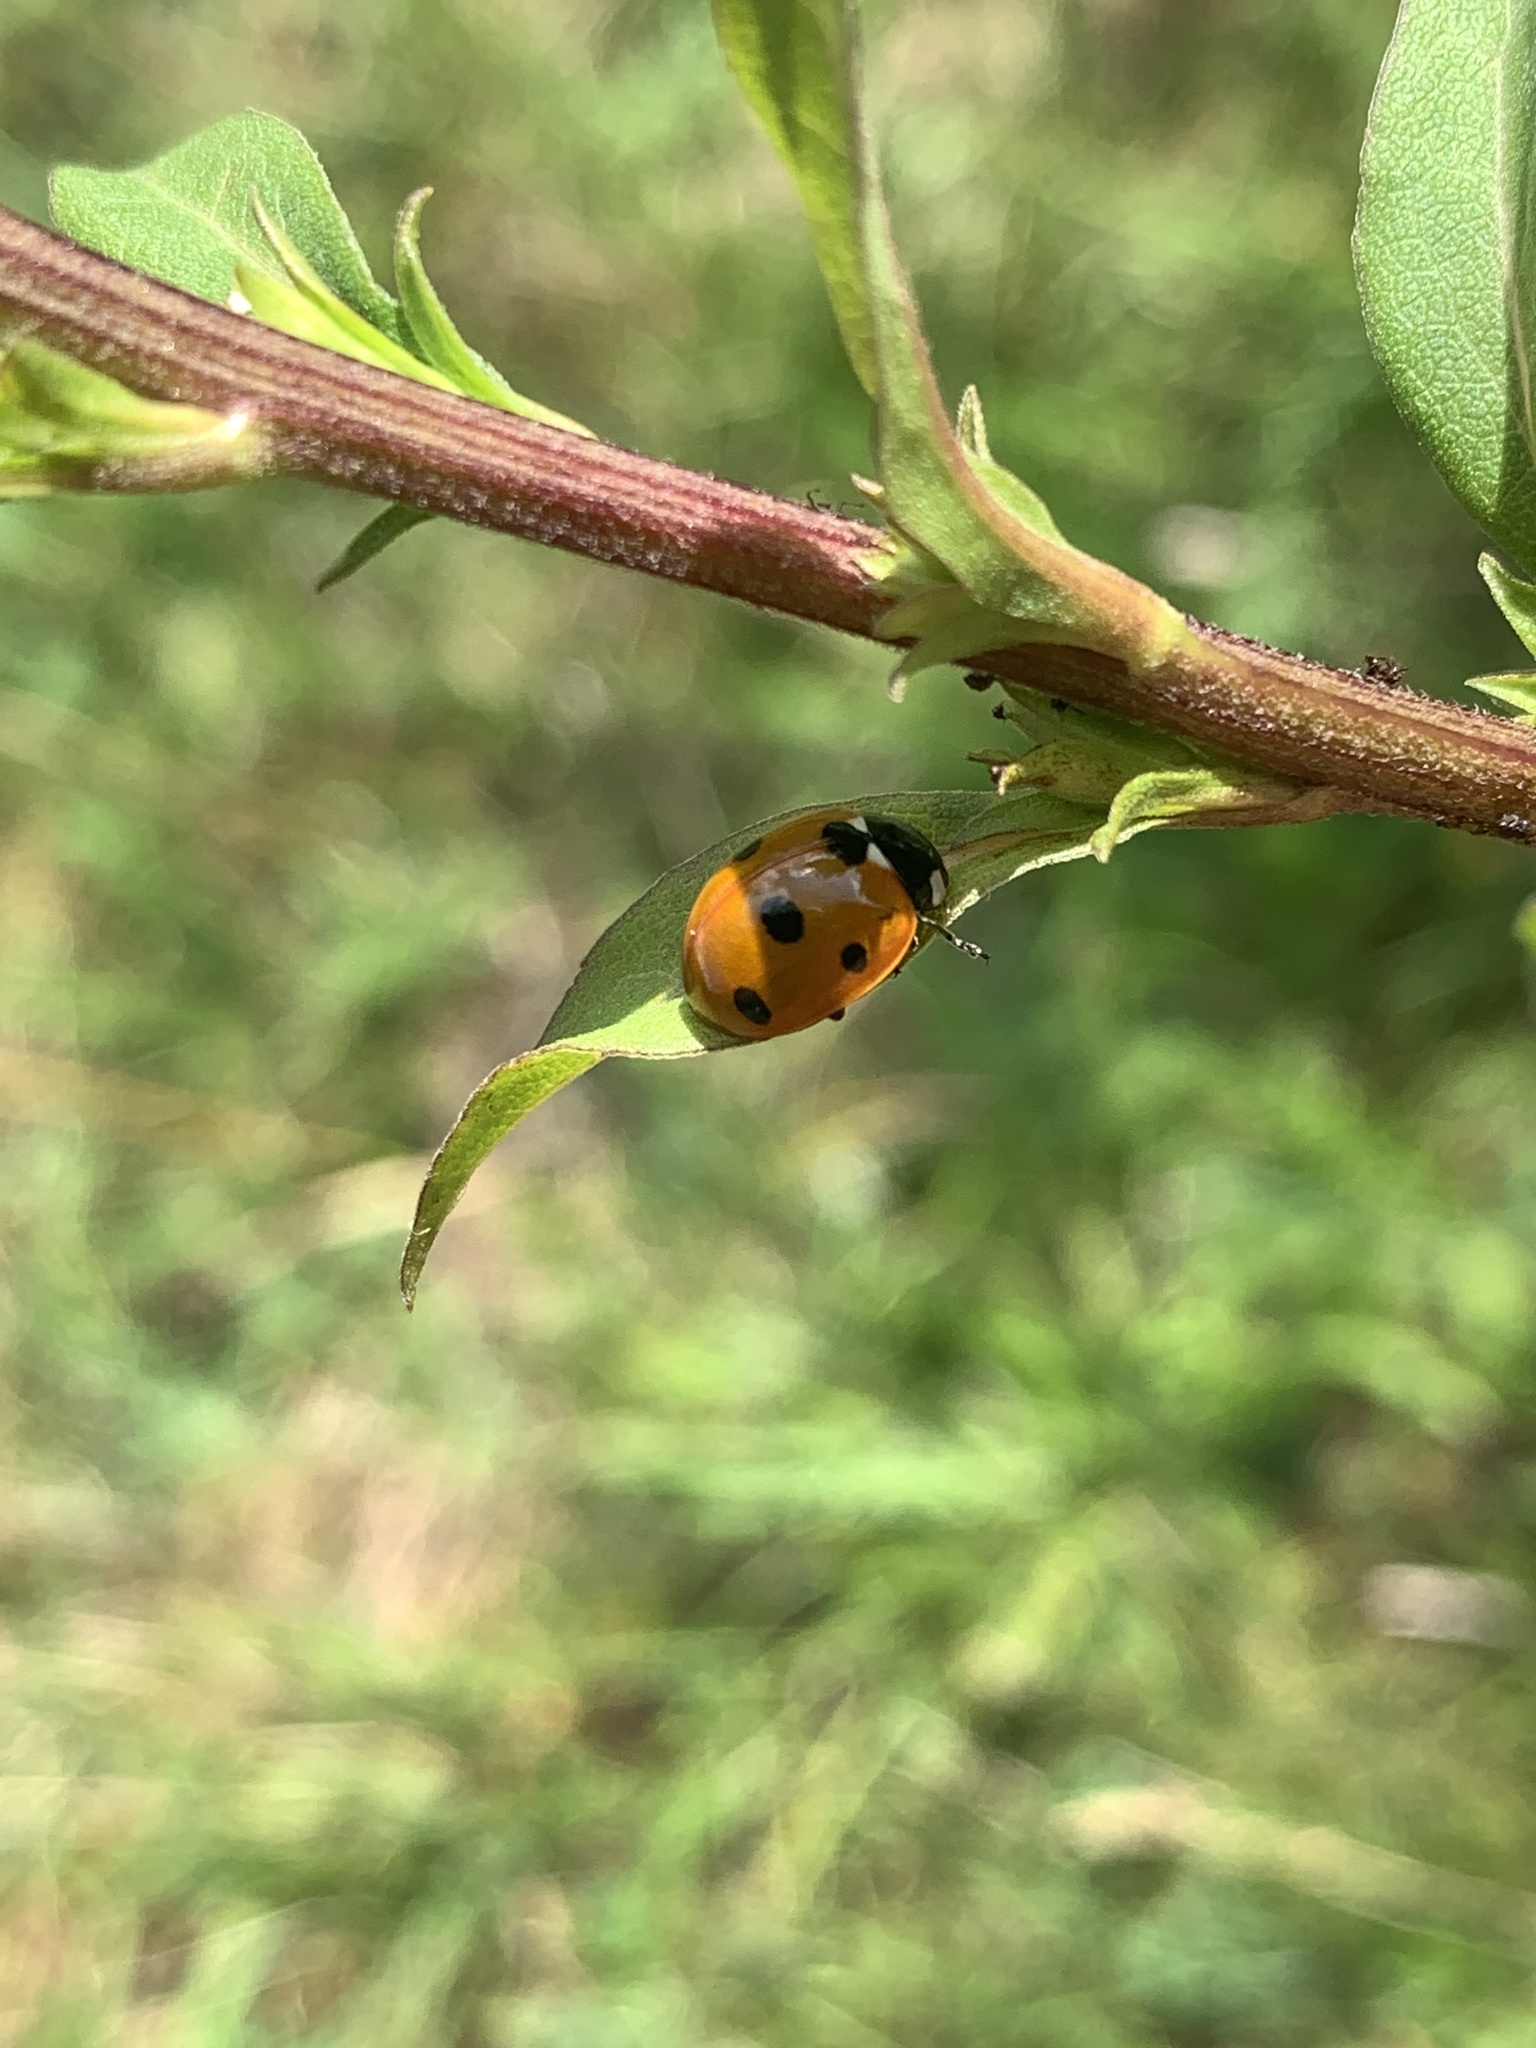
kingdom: Animalia
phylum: Arthropoda
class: Insecta
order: Coleoptera
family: Coccinellidae
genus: Coccinella
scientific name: Coccinella septempunctata
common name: Sevenspotted lady beetle
